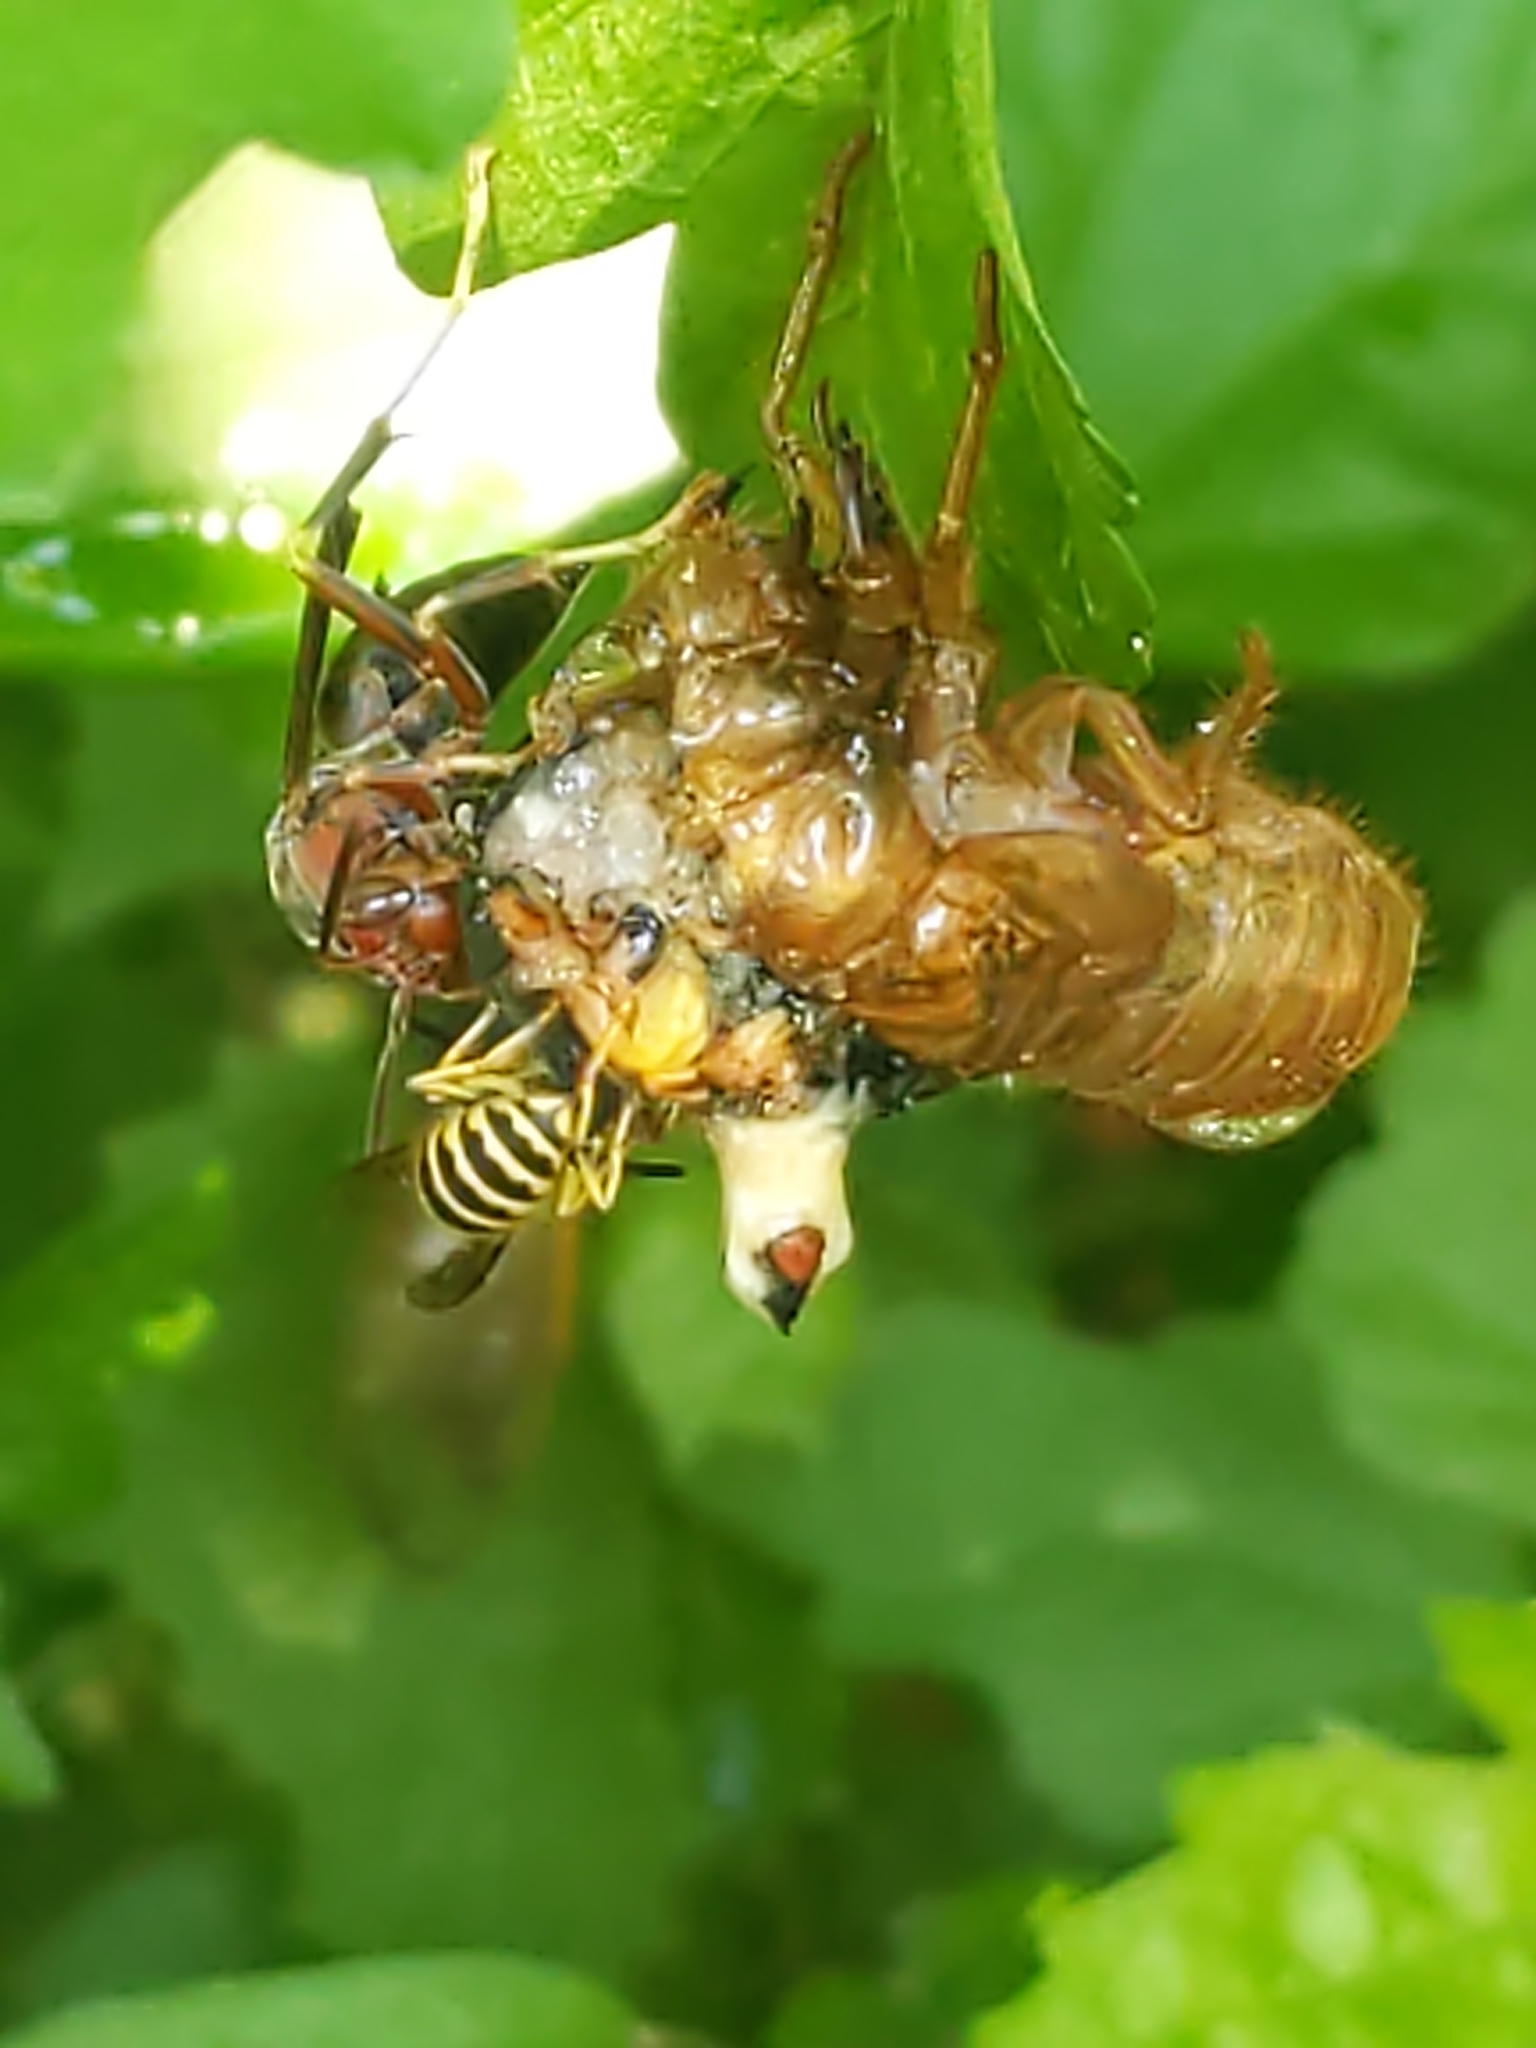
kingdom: Animalia
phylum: Arthropoda
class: Insecta
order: Hemiptera
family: Cicadidae
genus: Magicicada
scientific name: Magicicada
